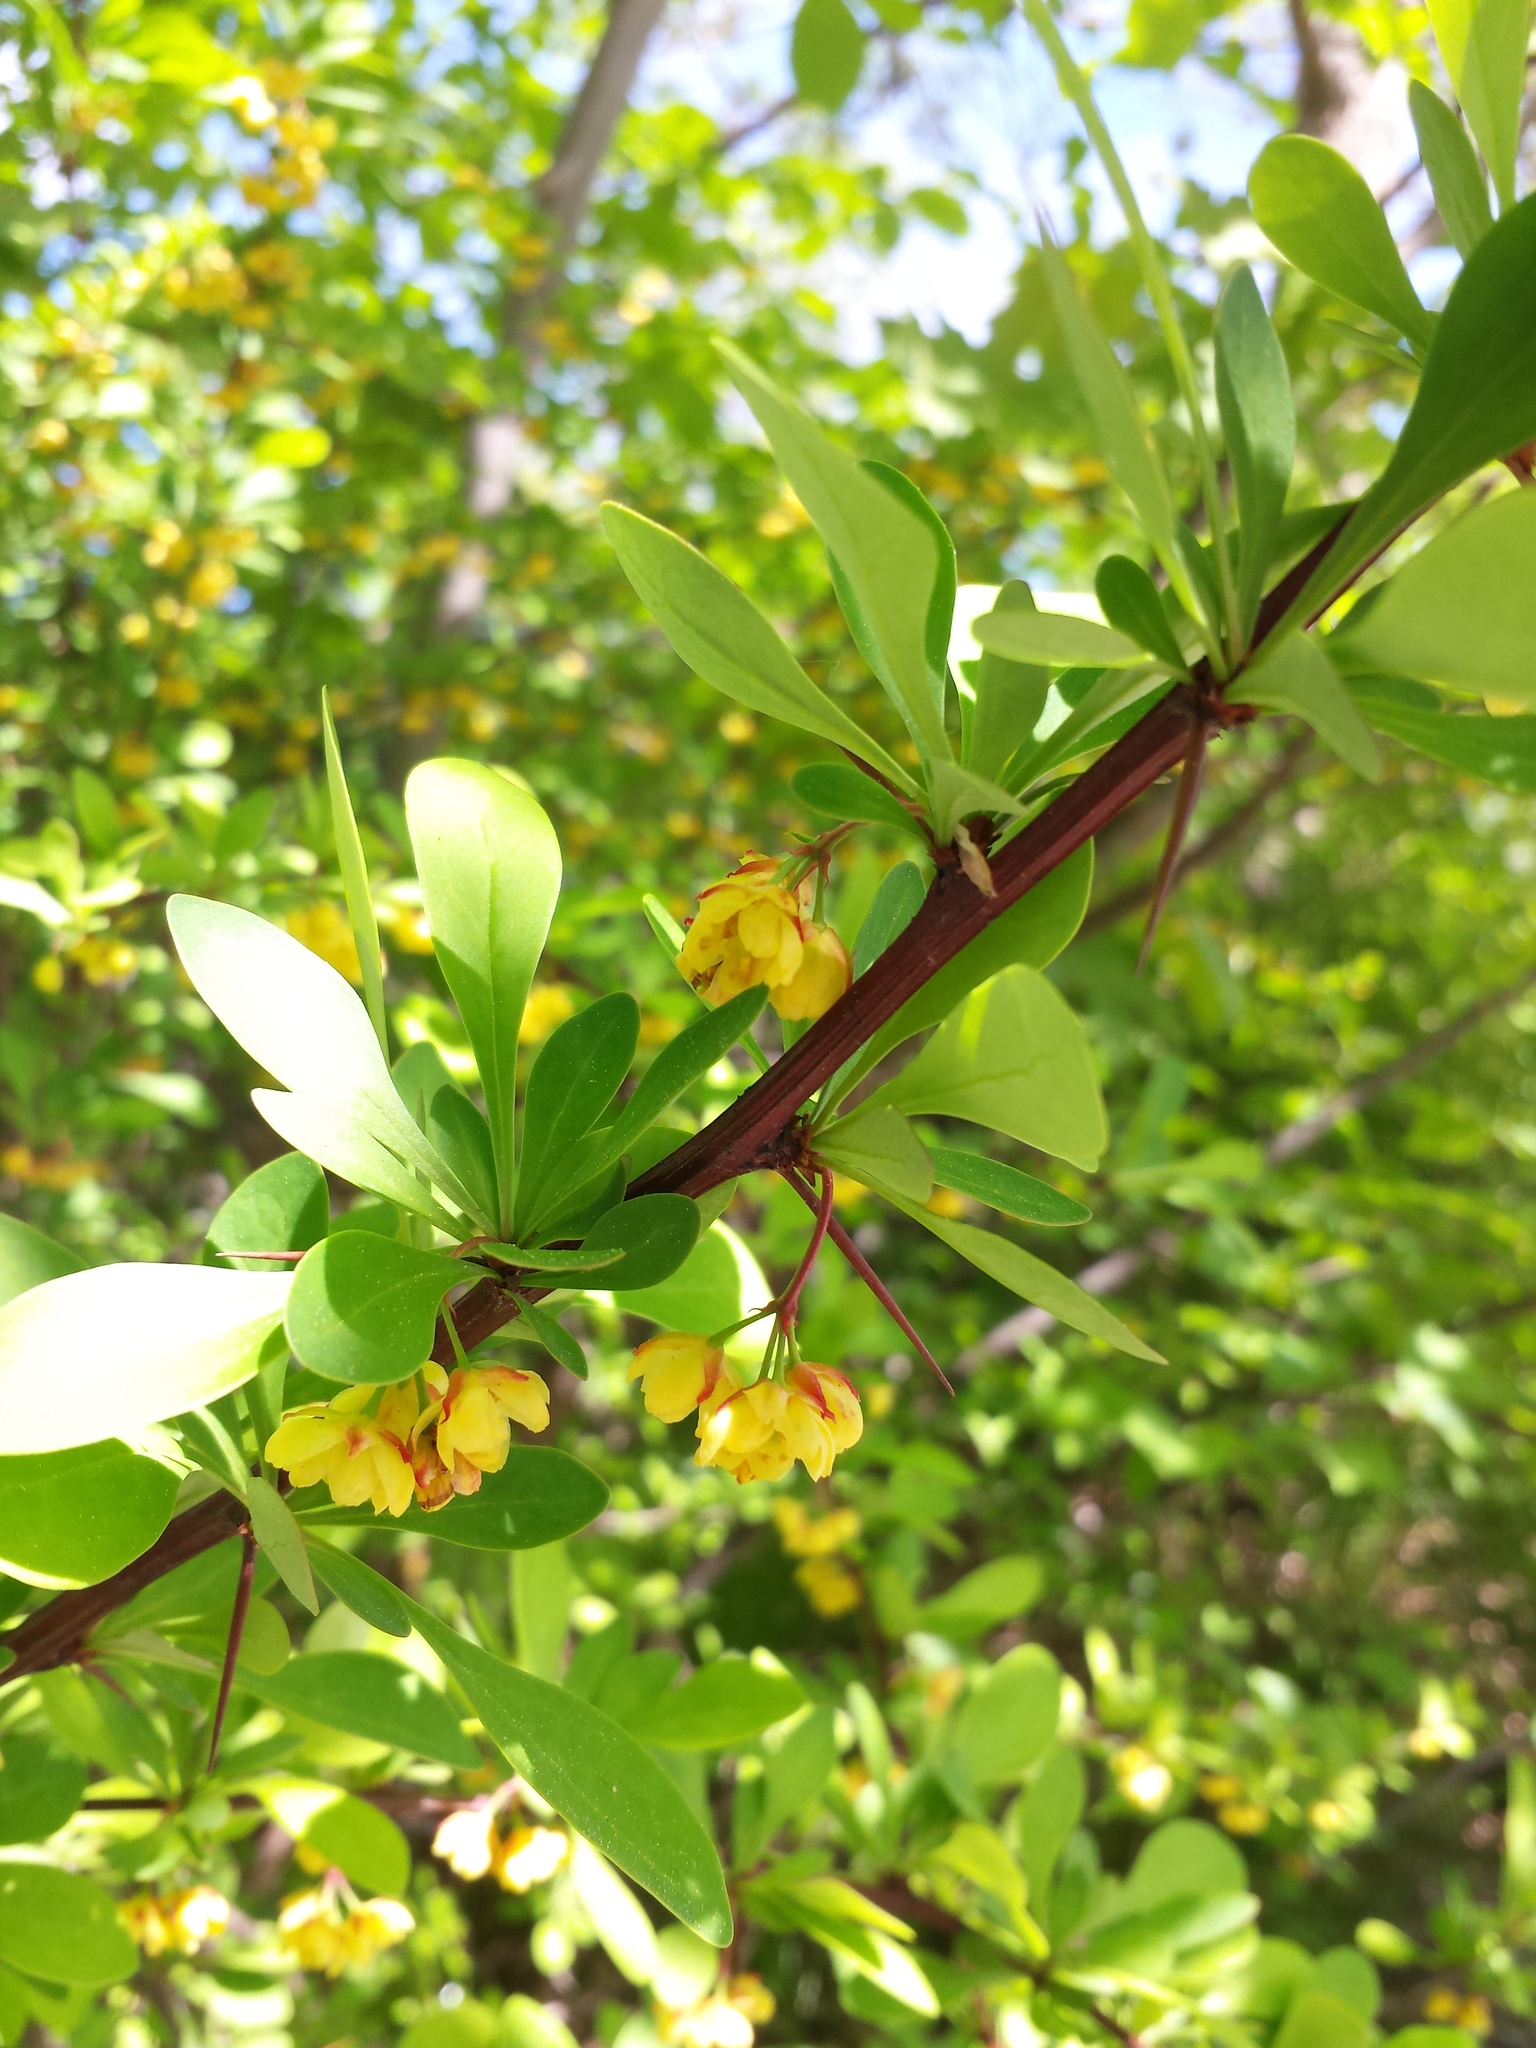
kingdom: Plantae
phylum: Tracheophyta
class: Magnoliopsida
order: Ranunculales
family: Berberidaceae
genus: Berberis
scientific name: Berberis thunbergii
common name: Japanese barberry
